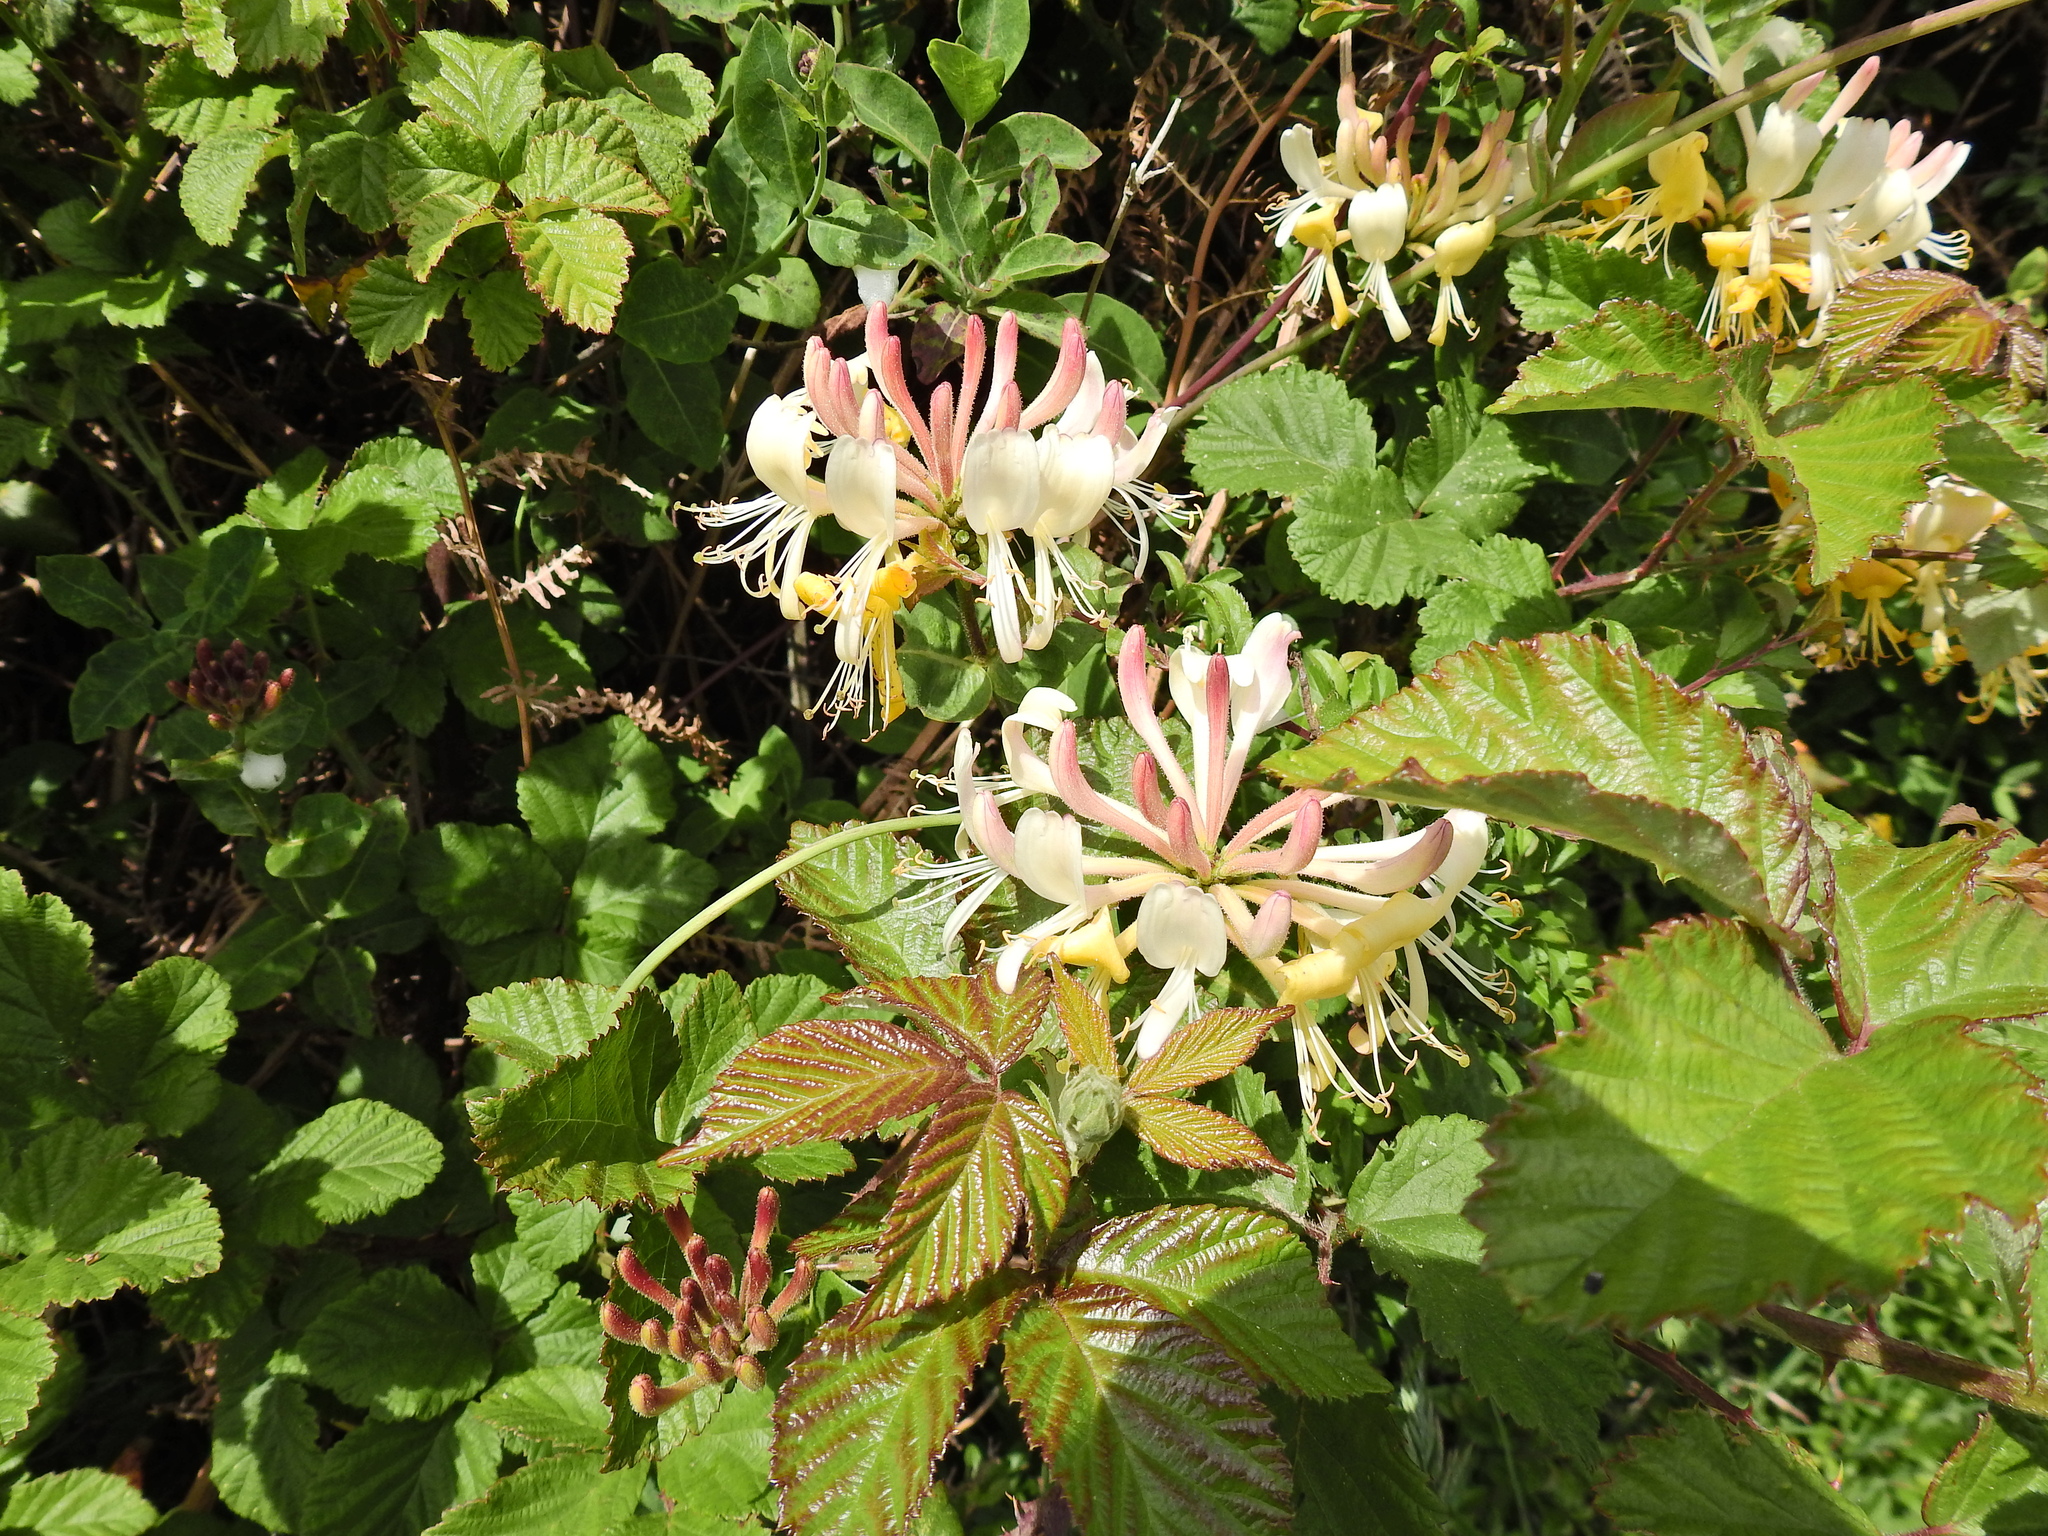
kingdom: Plantae
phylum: Tracheophyta
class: Magnoliopsida
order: Dipsacales
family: Caprifoliaceae
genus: Lonicera
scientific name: Lonicera periclymenum
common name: European honeysuckle
